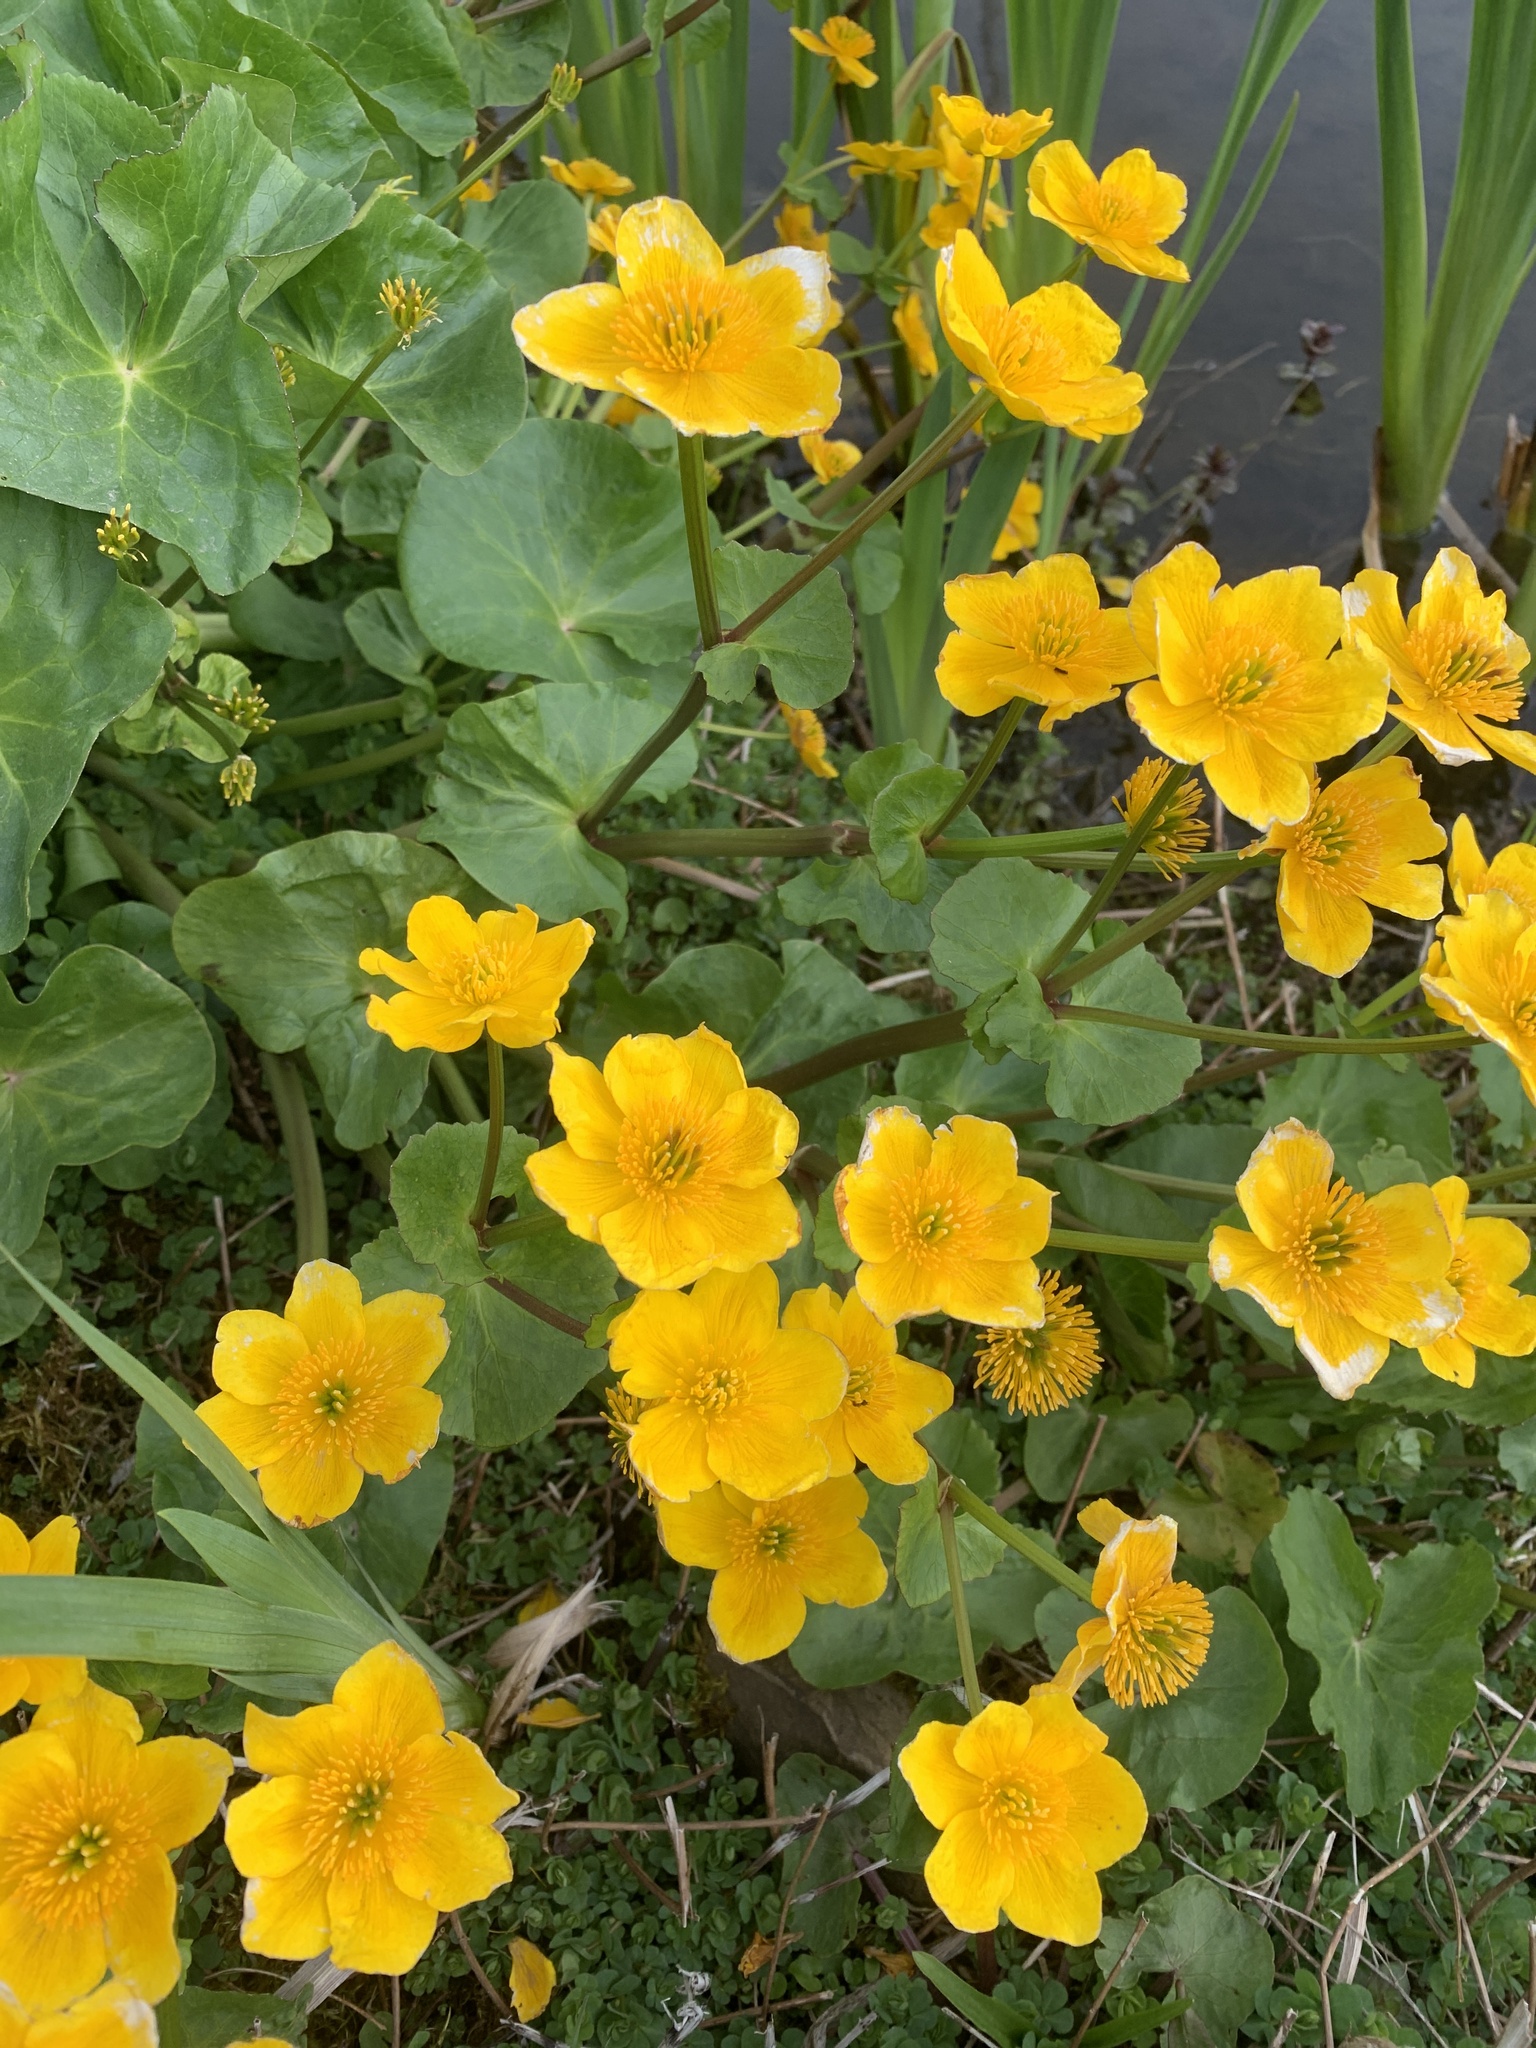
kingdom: Plantae
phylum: Tracheophyta
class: Magnoliopsida
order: Ranunculales
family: Ranunculaceae
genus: Caltha
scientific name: Caltha palustris
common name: Marsh marigold
